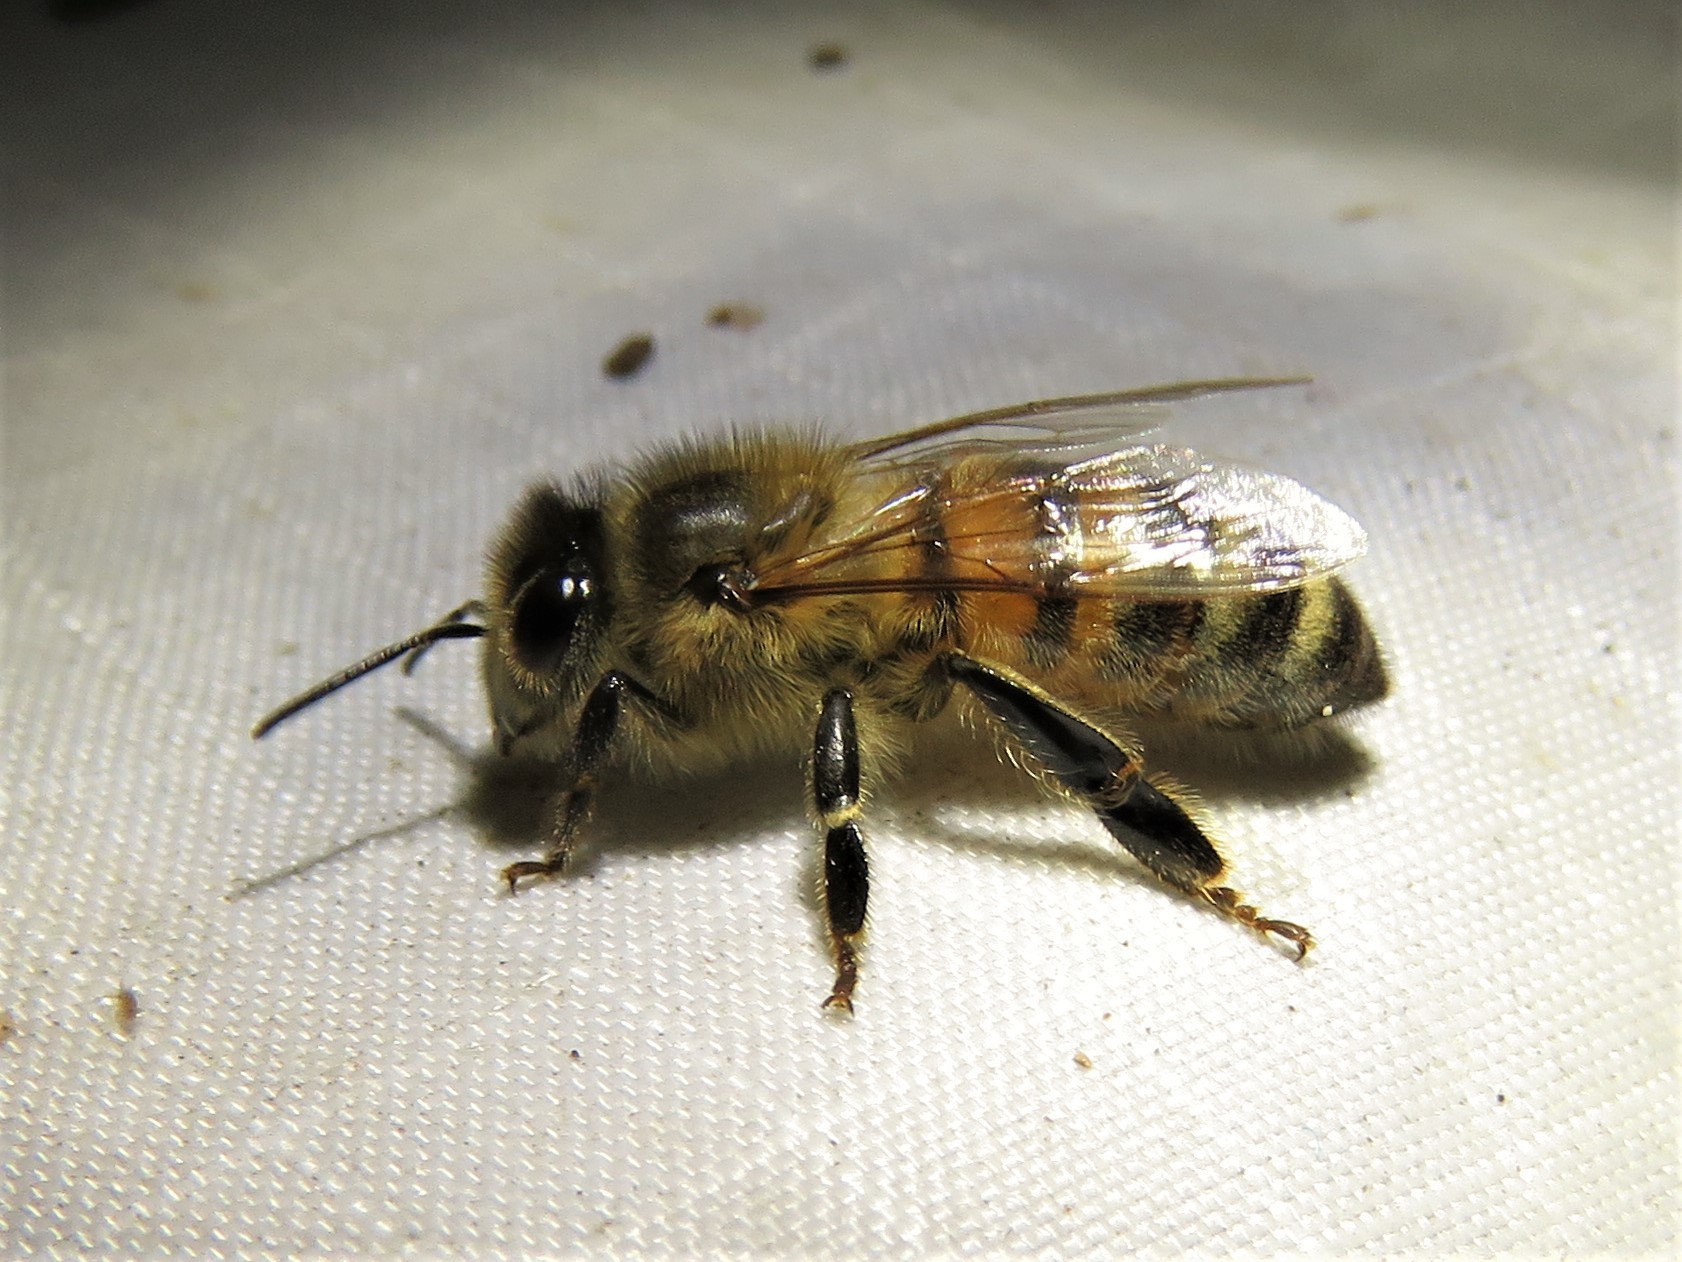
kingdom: Animalia
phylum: Arthropoda
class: Insecta
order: Hymenoptera
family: Apidae
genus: Apis
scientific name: Apis mellifera
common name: Honey bee
